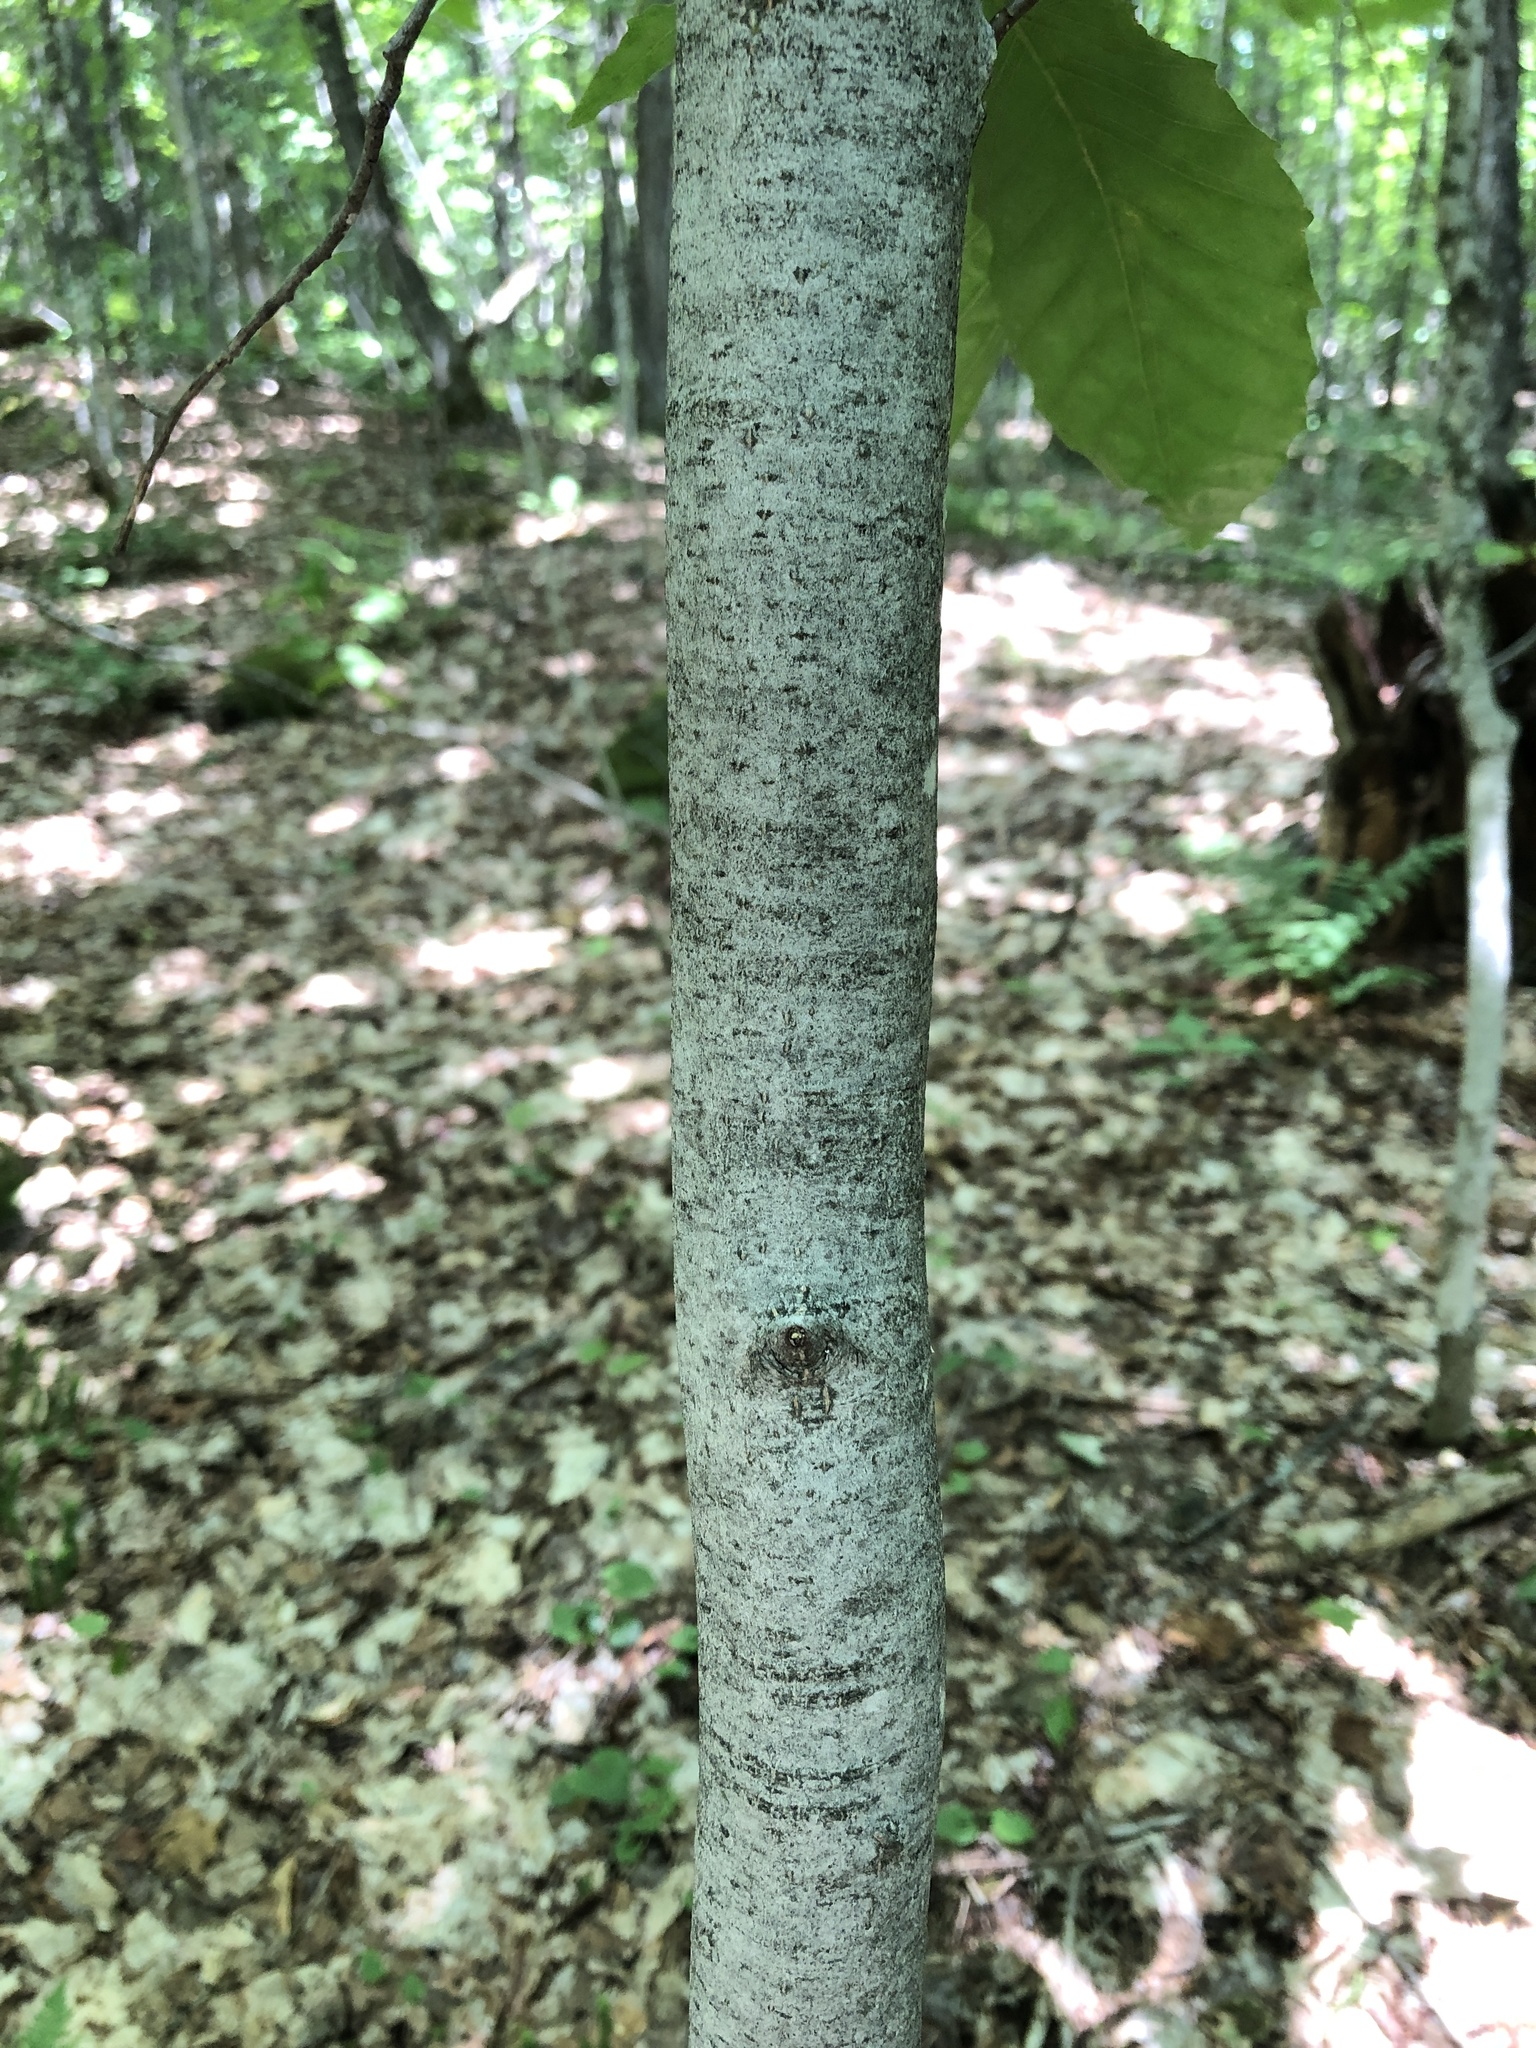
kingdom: Plantae
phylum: Tracheophyta
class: Magnoliopsida
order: Fagales
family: Fagaceae
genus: Fagus
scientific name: Fagus grandifolia
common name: American beech
